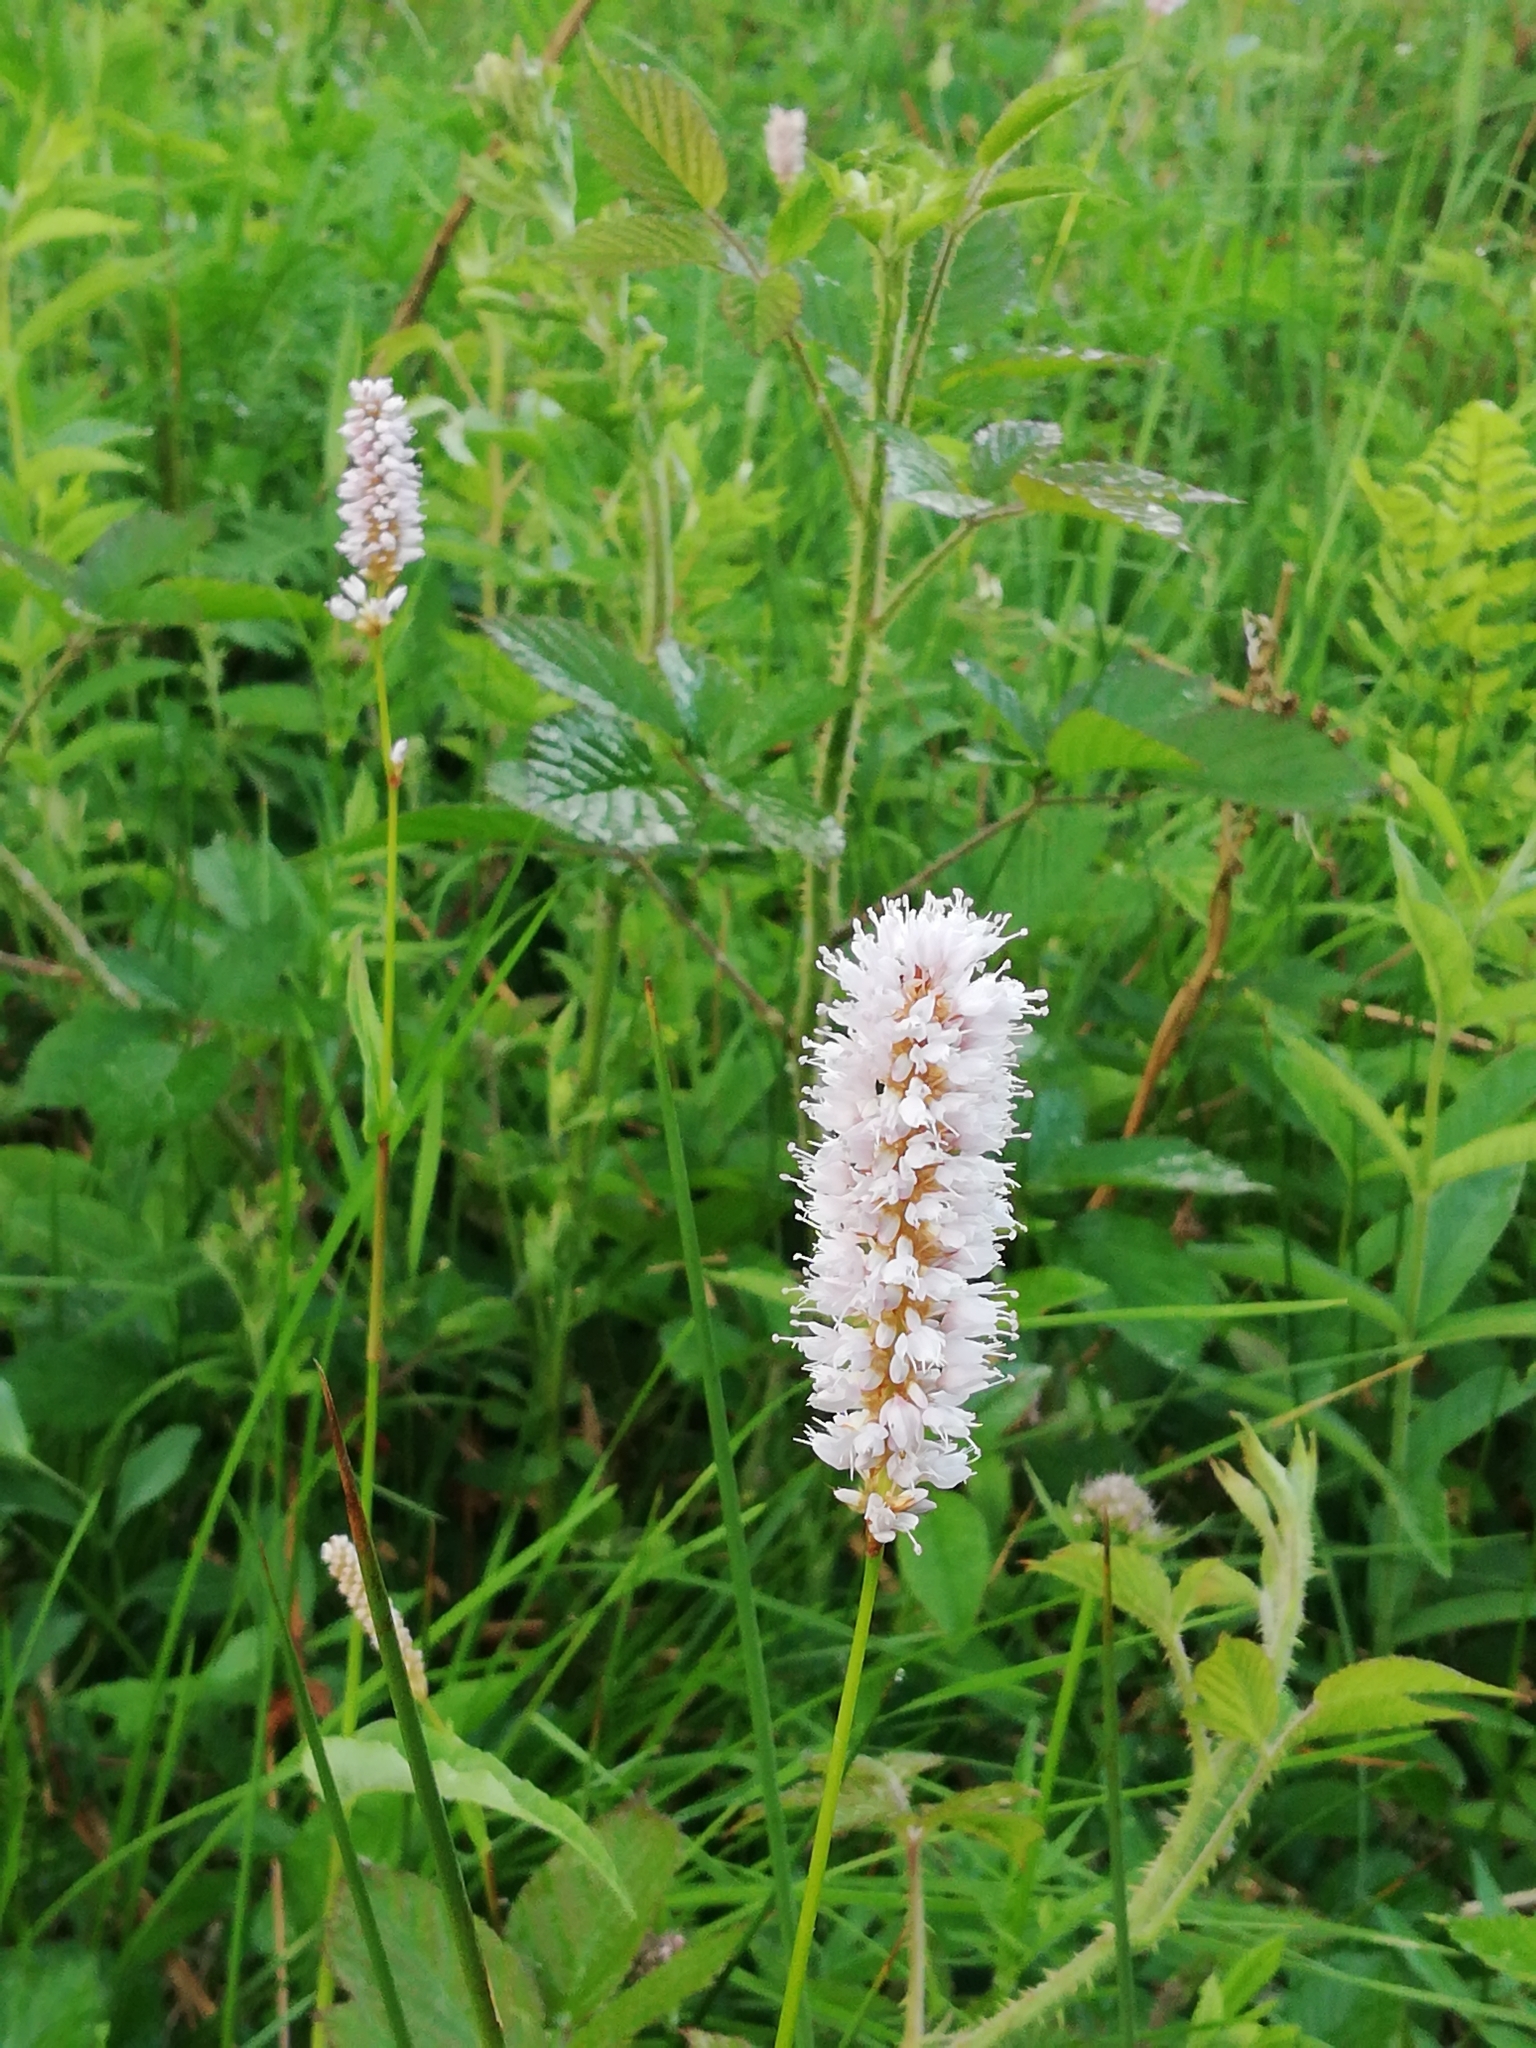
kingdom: Plantae
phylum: Tracheophyta
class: Magnoliopsida
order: Caryophyllales
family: Polygonaceae
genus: Bistorta
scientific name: Bistorta officinalis
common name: Common bistort
